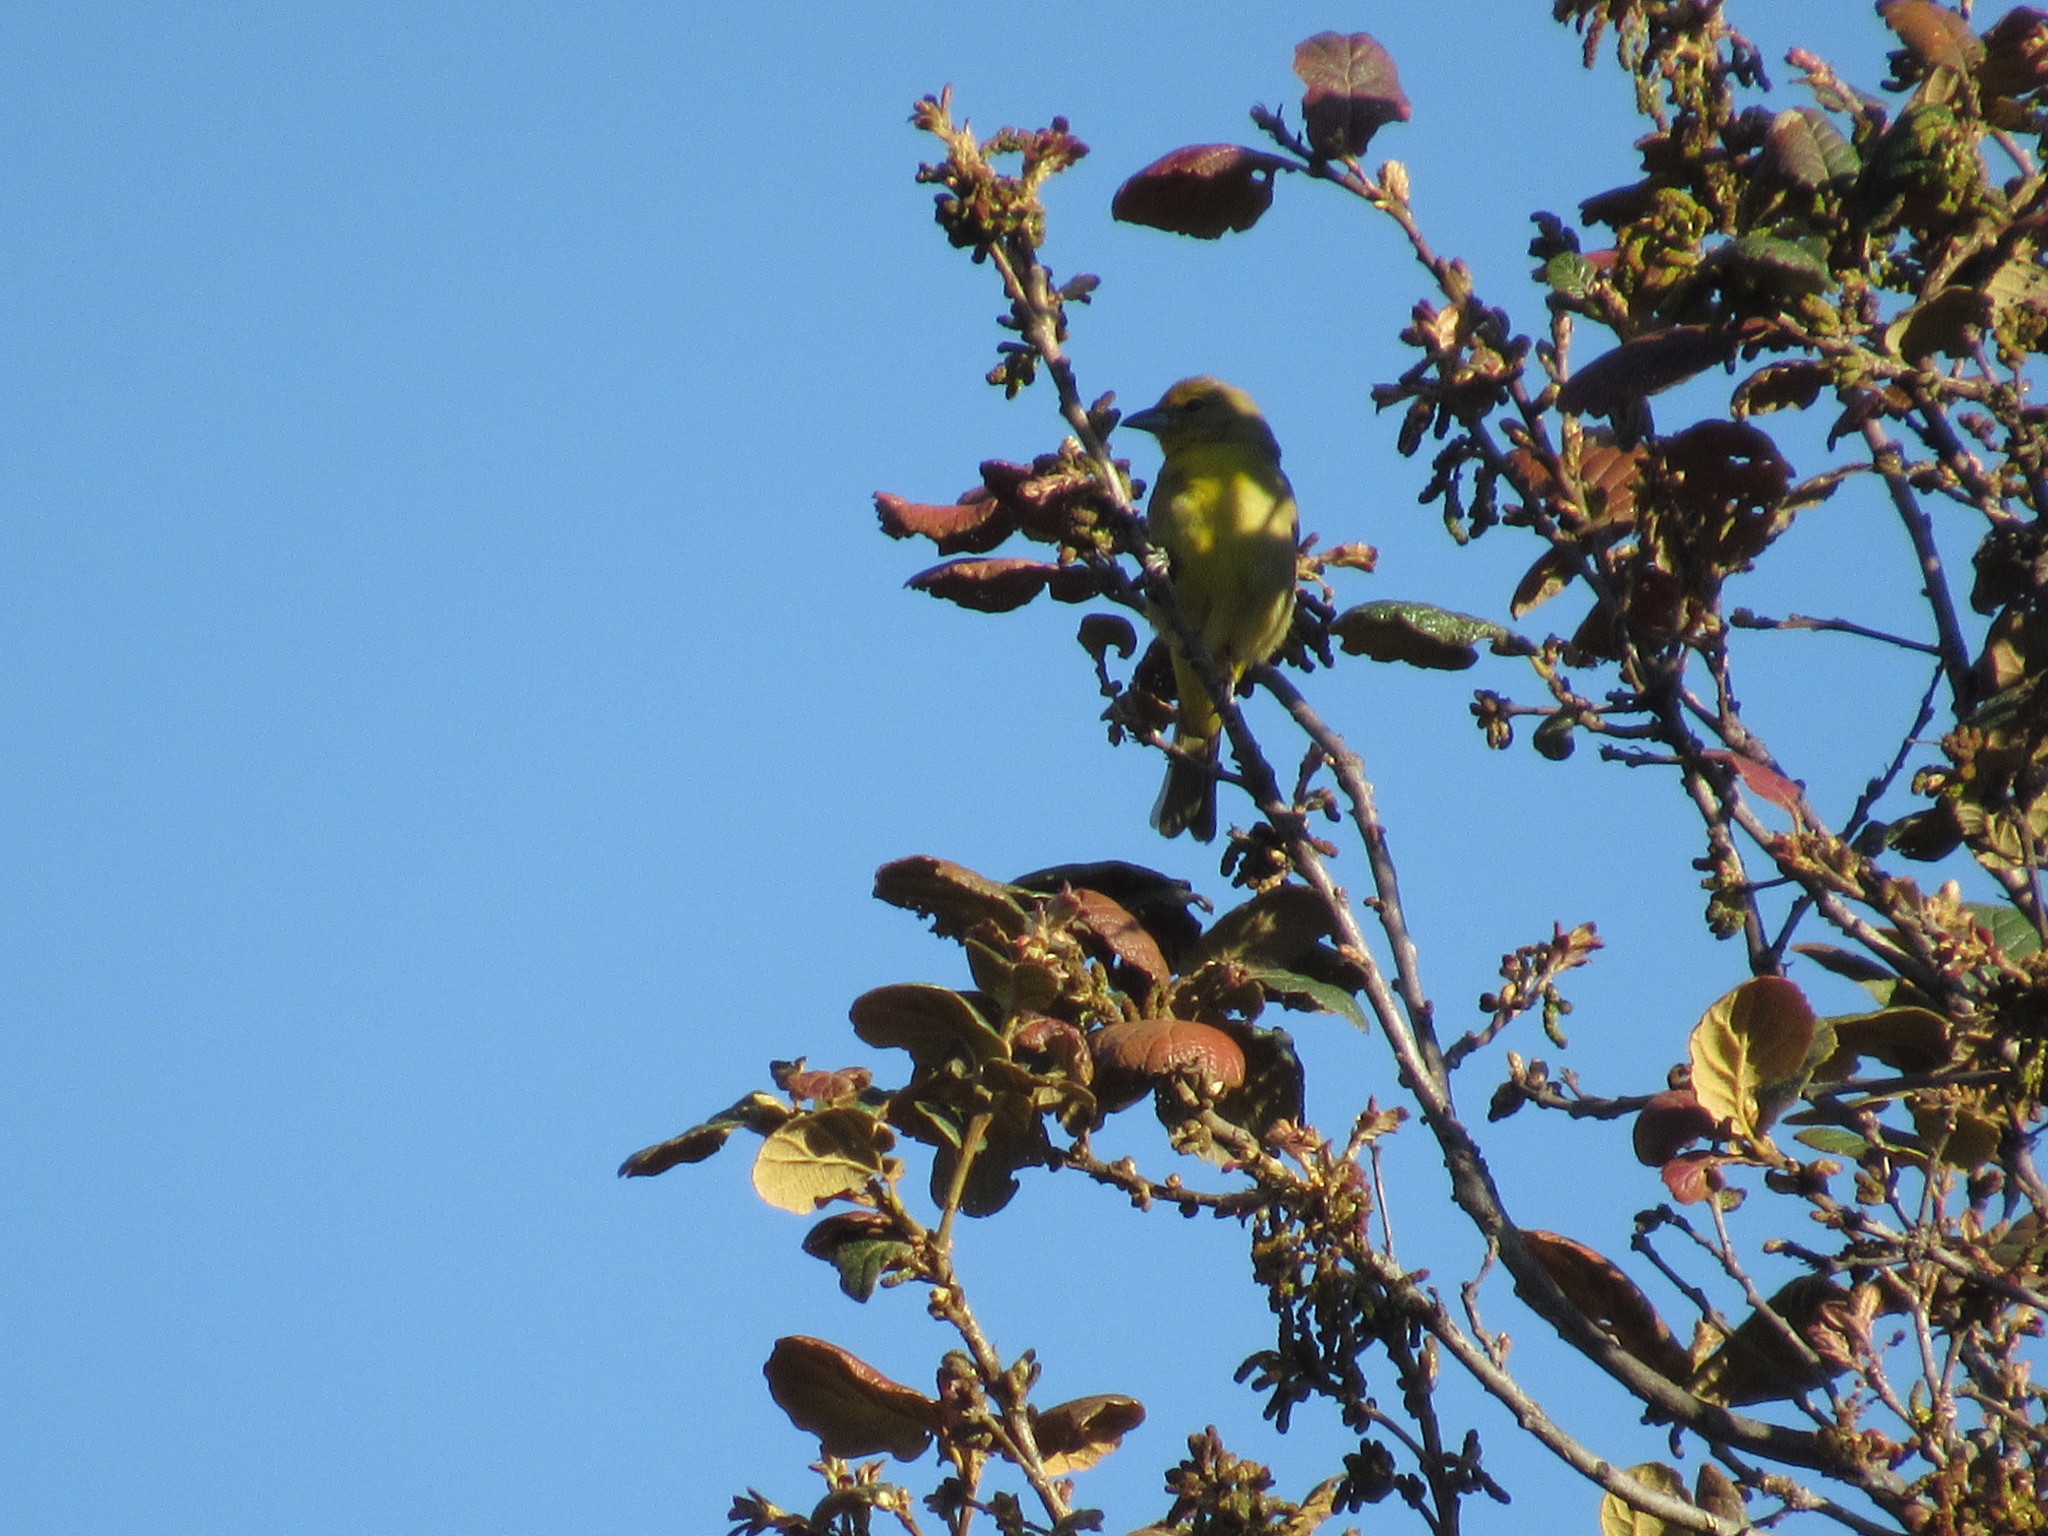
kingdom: Animalia
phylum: Chordata
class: Aves
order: Passeriformes
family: Cardinalidae
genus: Piranga
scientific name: Piranga flava
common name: Red tanager
